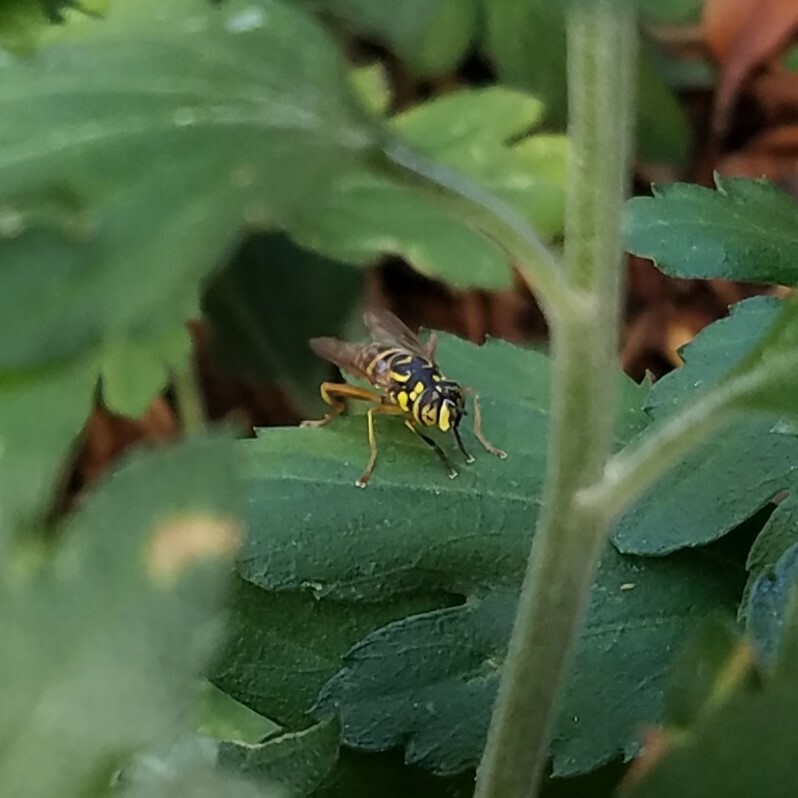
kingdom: Animalia
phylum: Arthropoda
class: Insecta
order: Diptera
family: Syrphidae
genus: Spilomyia
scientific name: Spilomyia longicornis
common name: Eastern hornet fly
